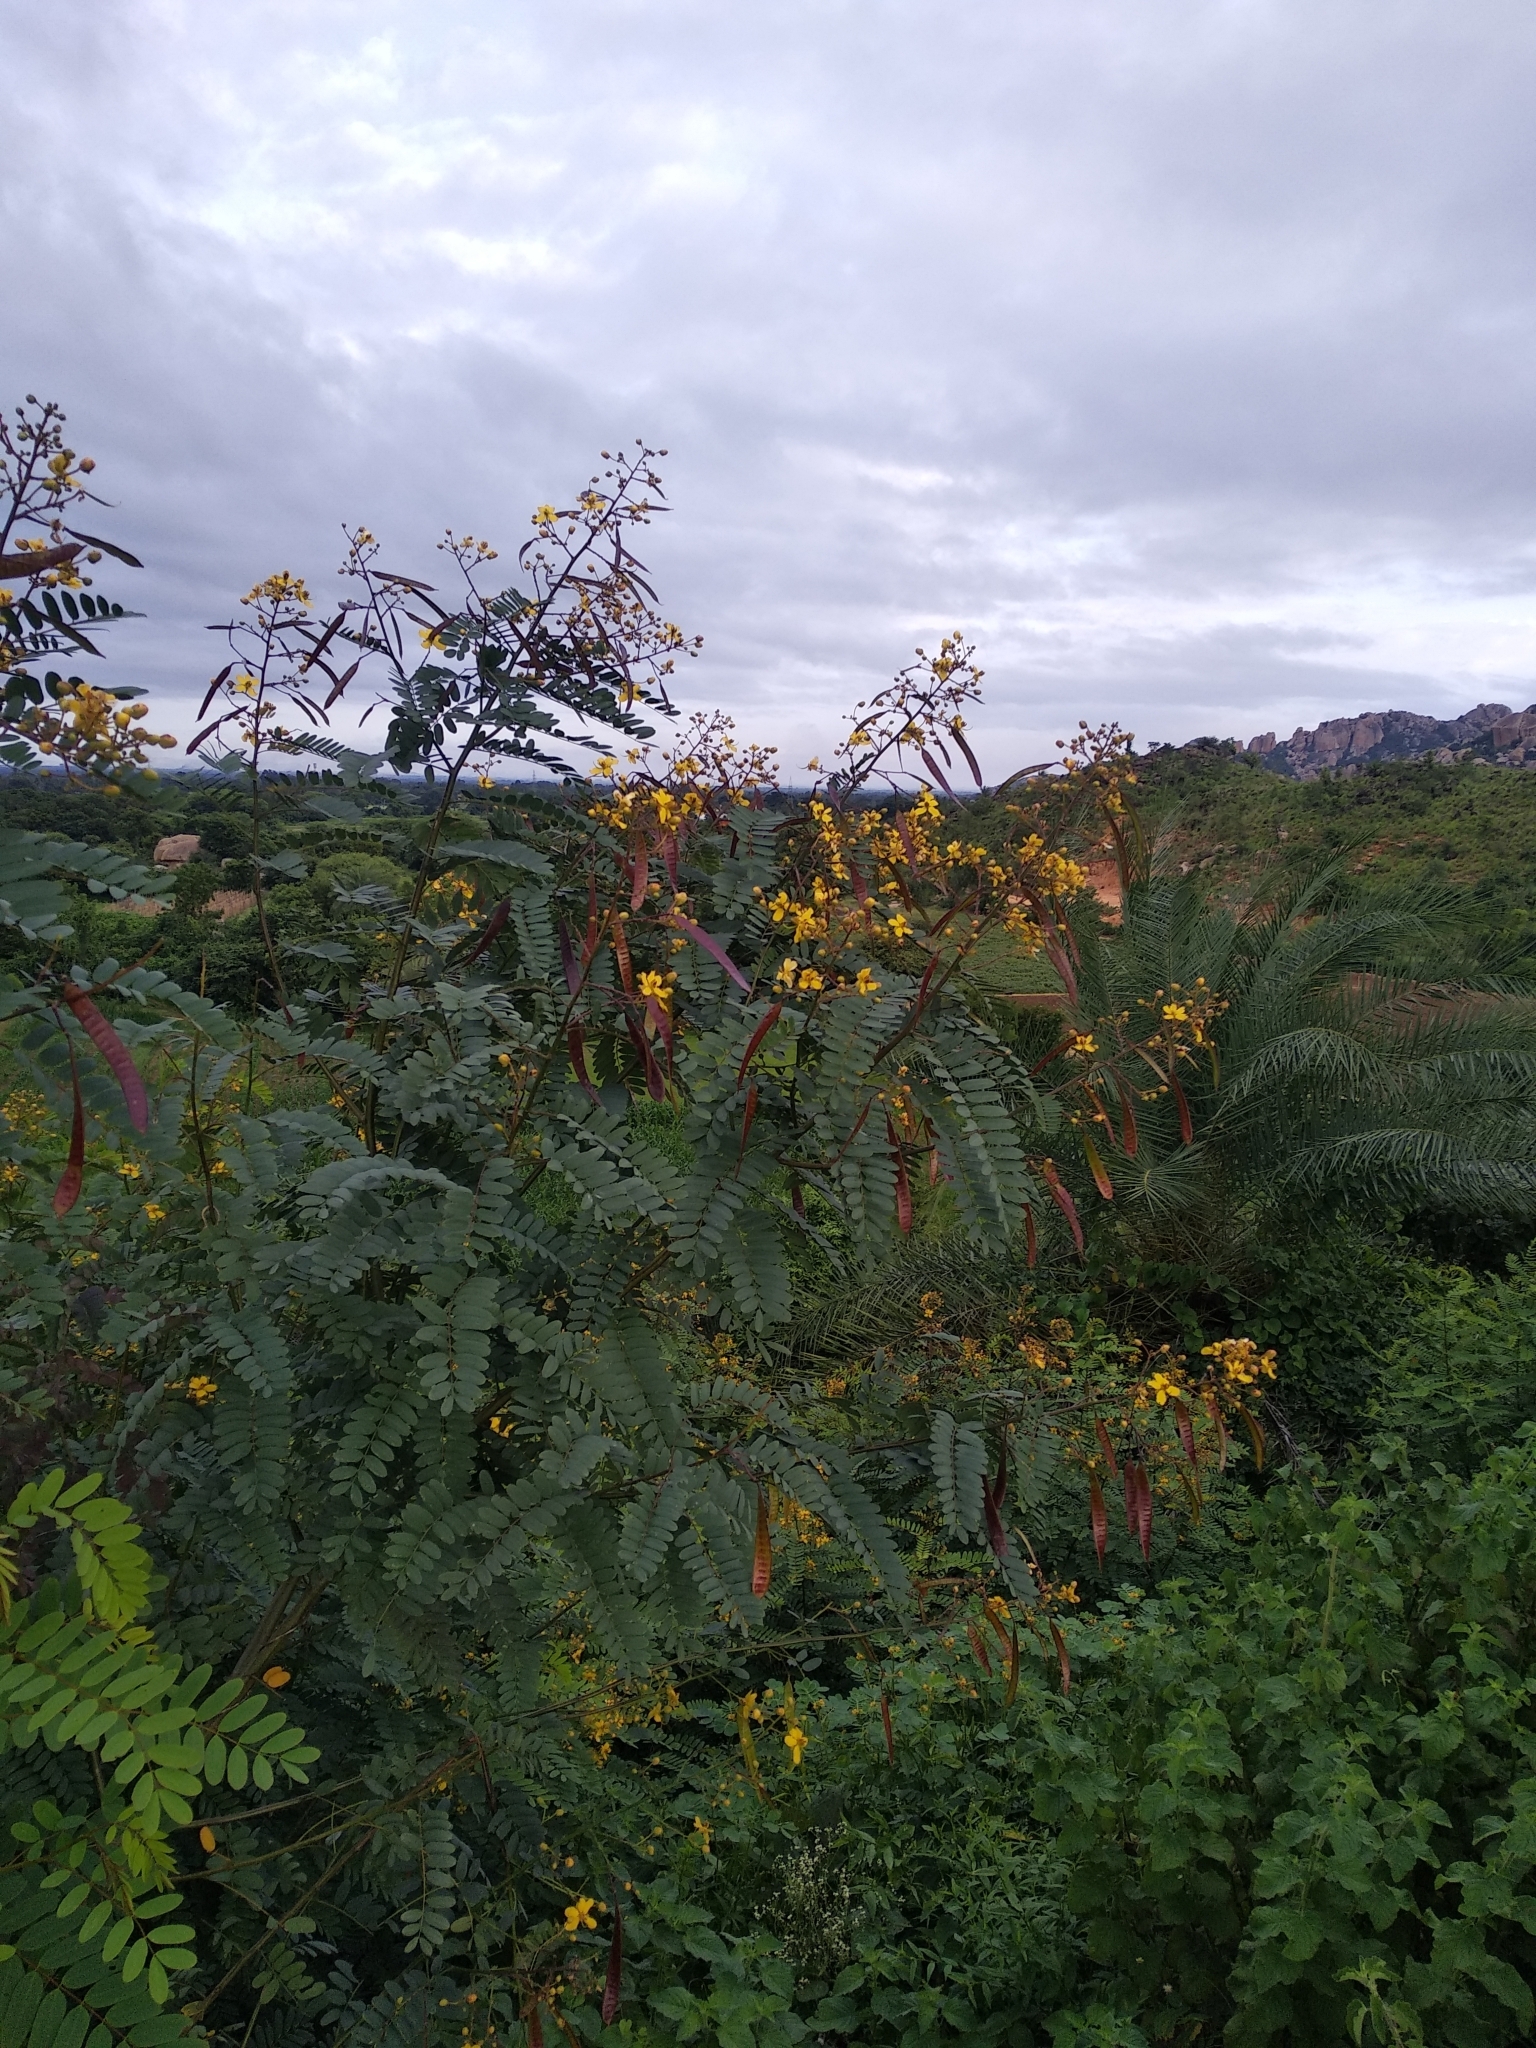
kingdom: Plantae
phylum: Tracheophyta
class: Magnoliopsida
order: Fabales
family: Fabaceae
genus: Peltophorum
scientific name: Peltophorum pterocarpum
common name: Yellow flame
